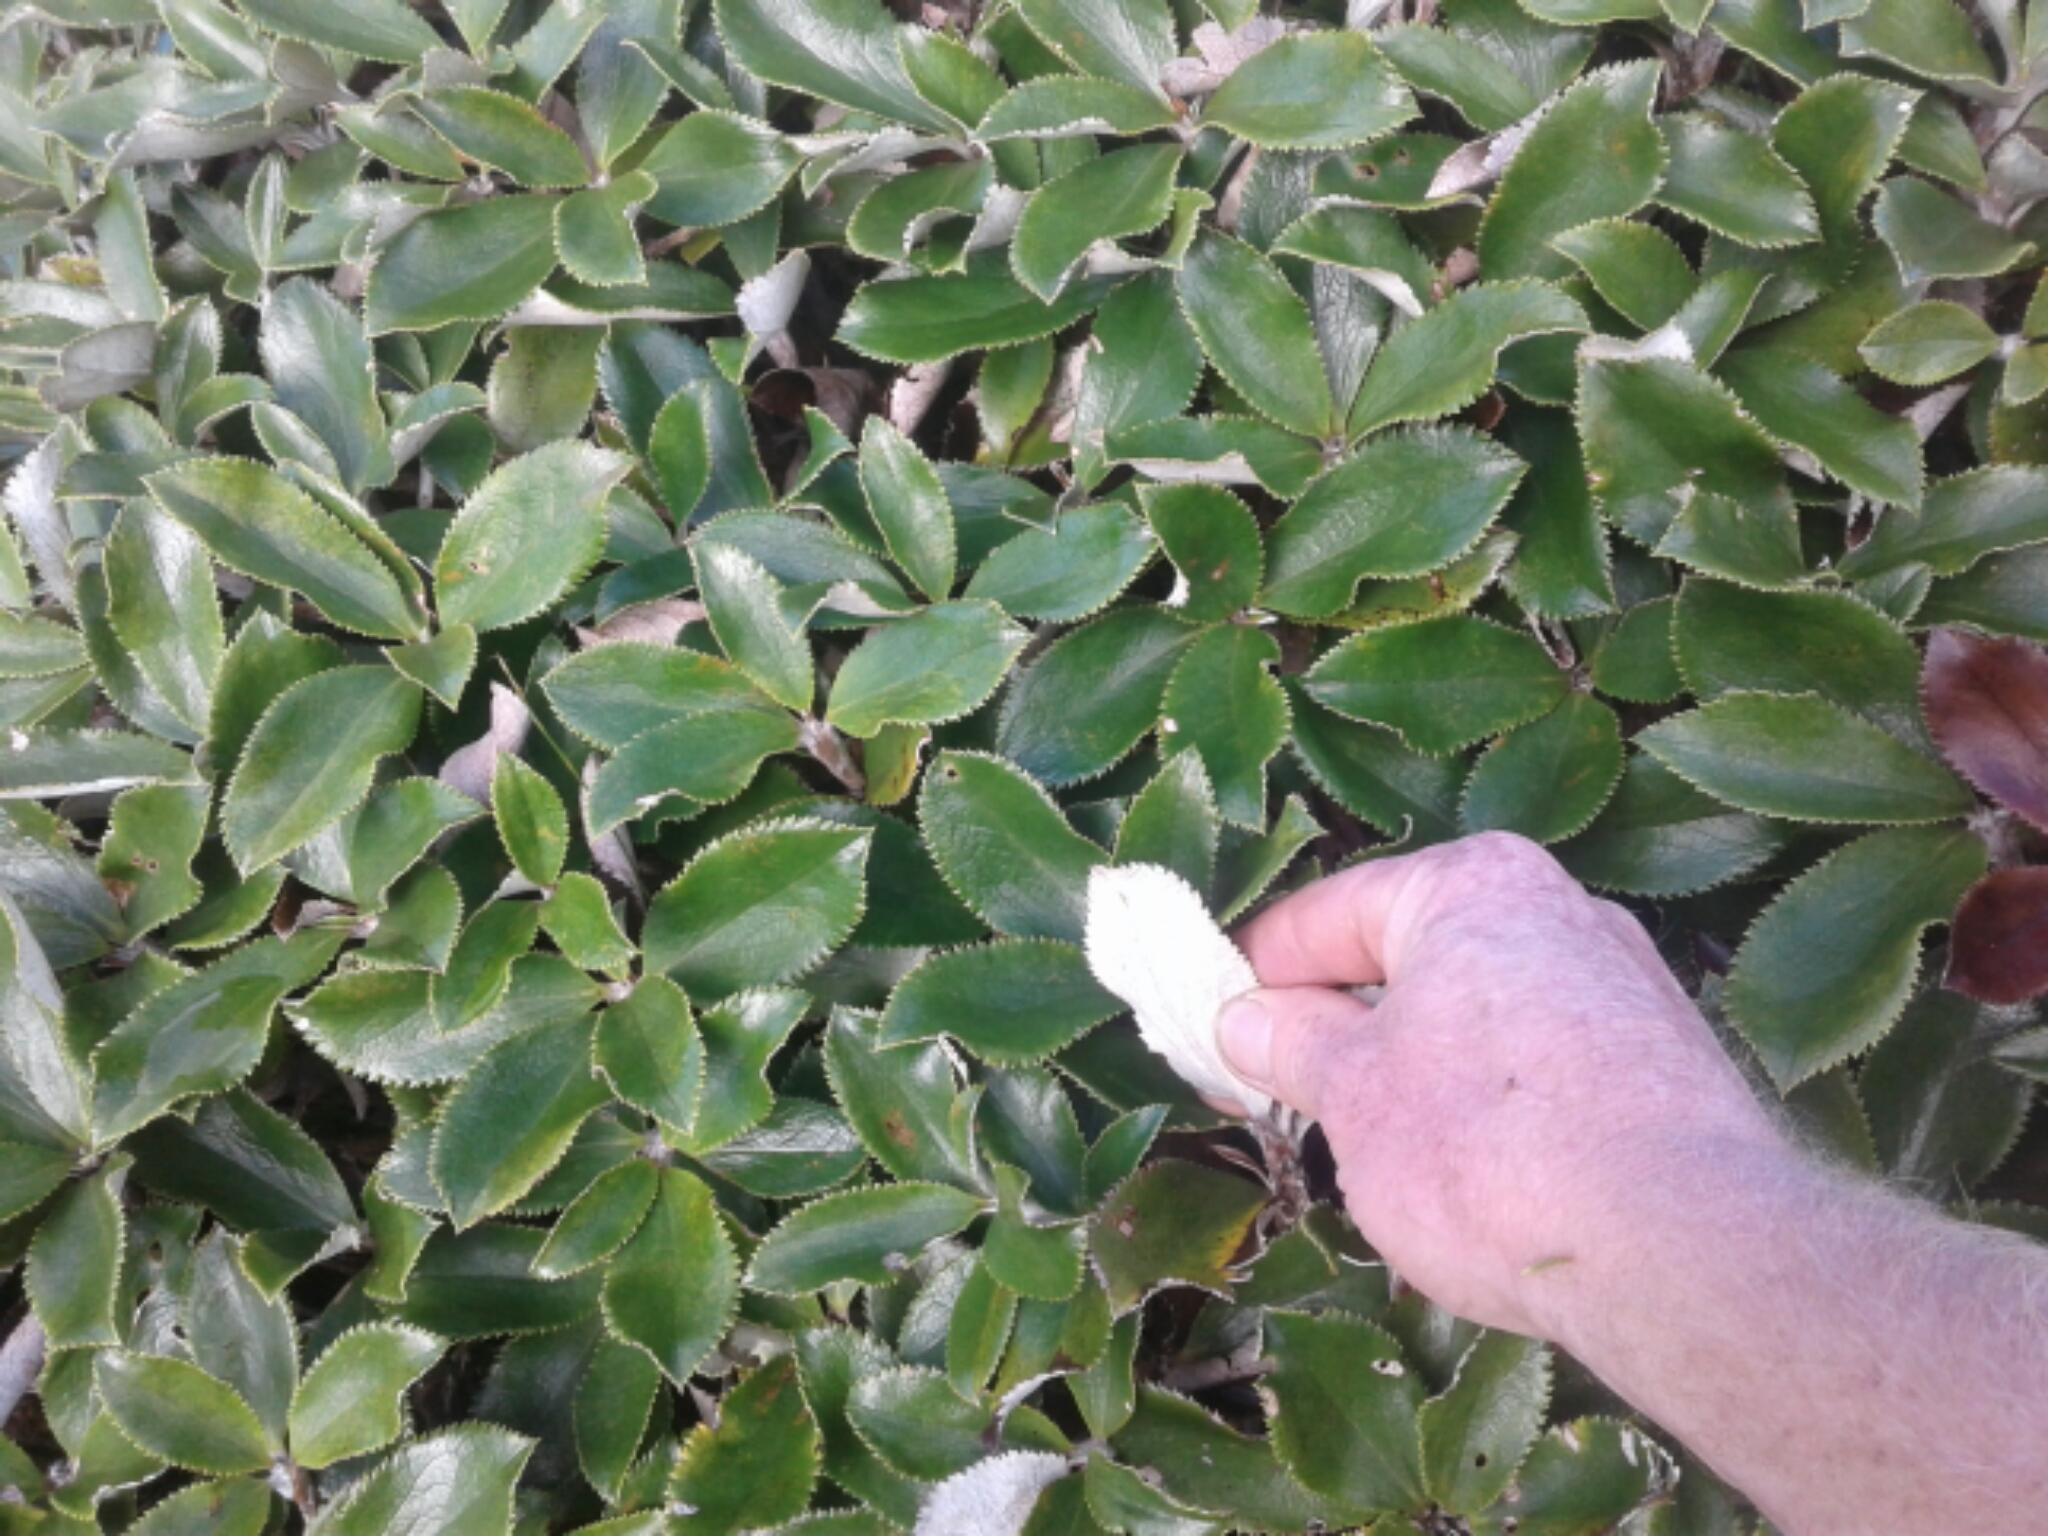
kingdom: Plantae
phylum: Tracheophyta
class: Magnoliopsida
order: Asterales
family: Asteraceae
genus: Macrolearia
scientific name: Macrolearia colensoi
